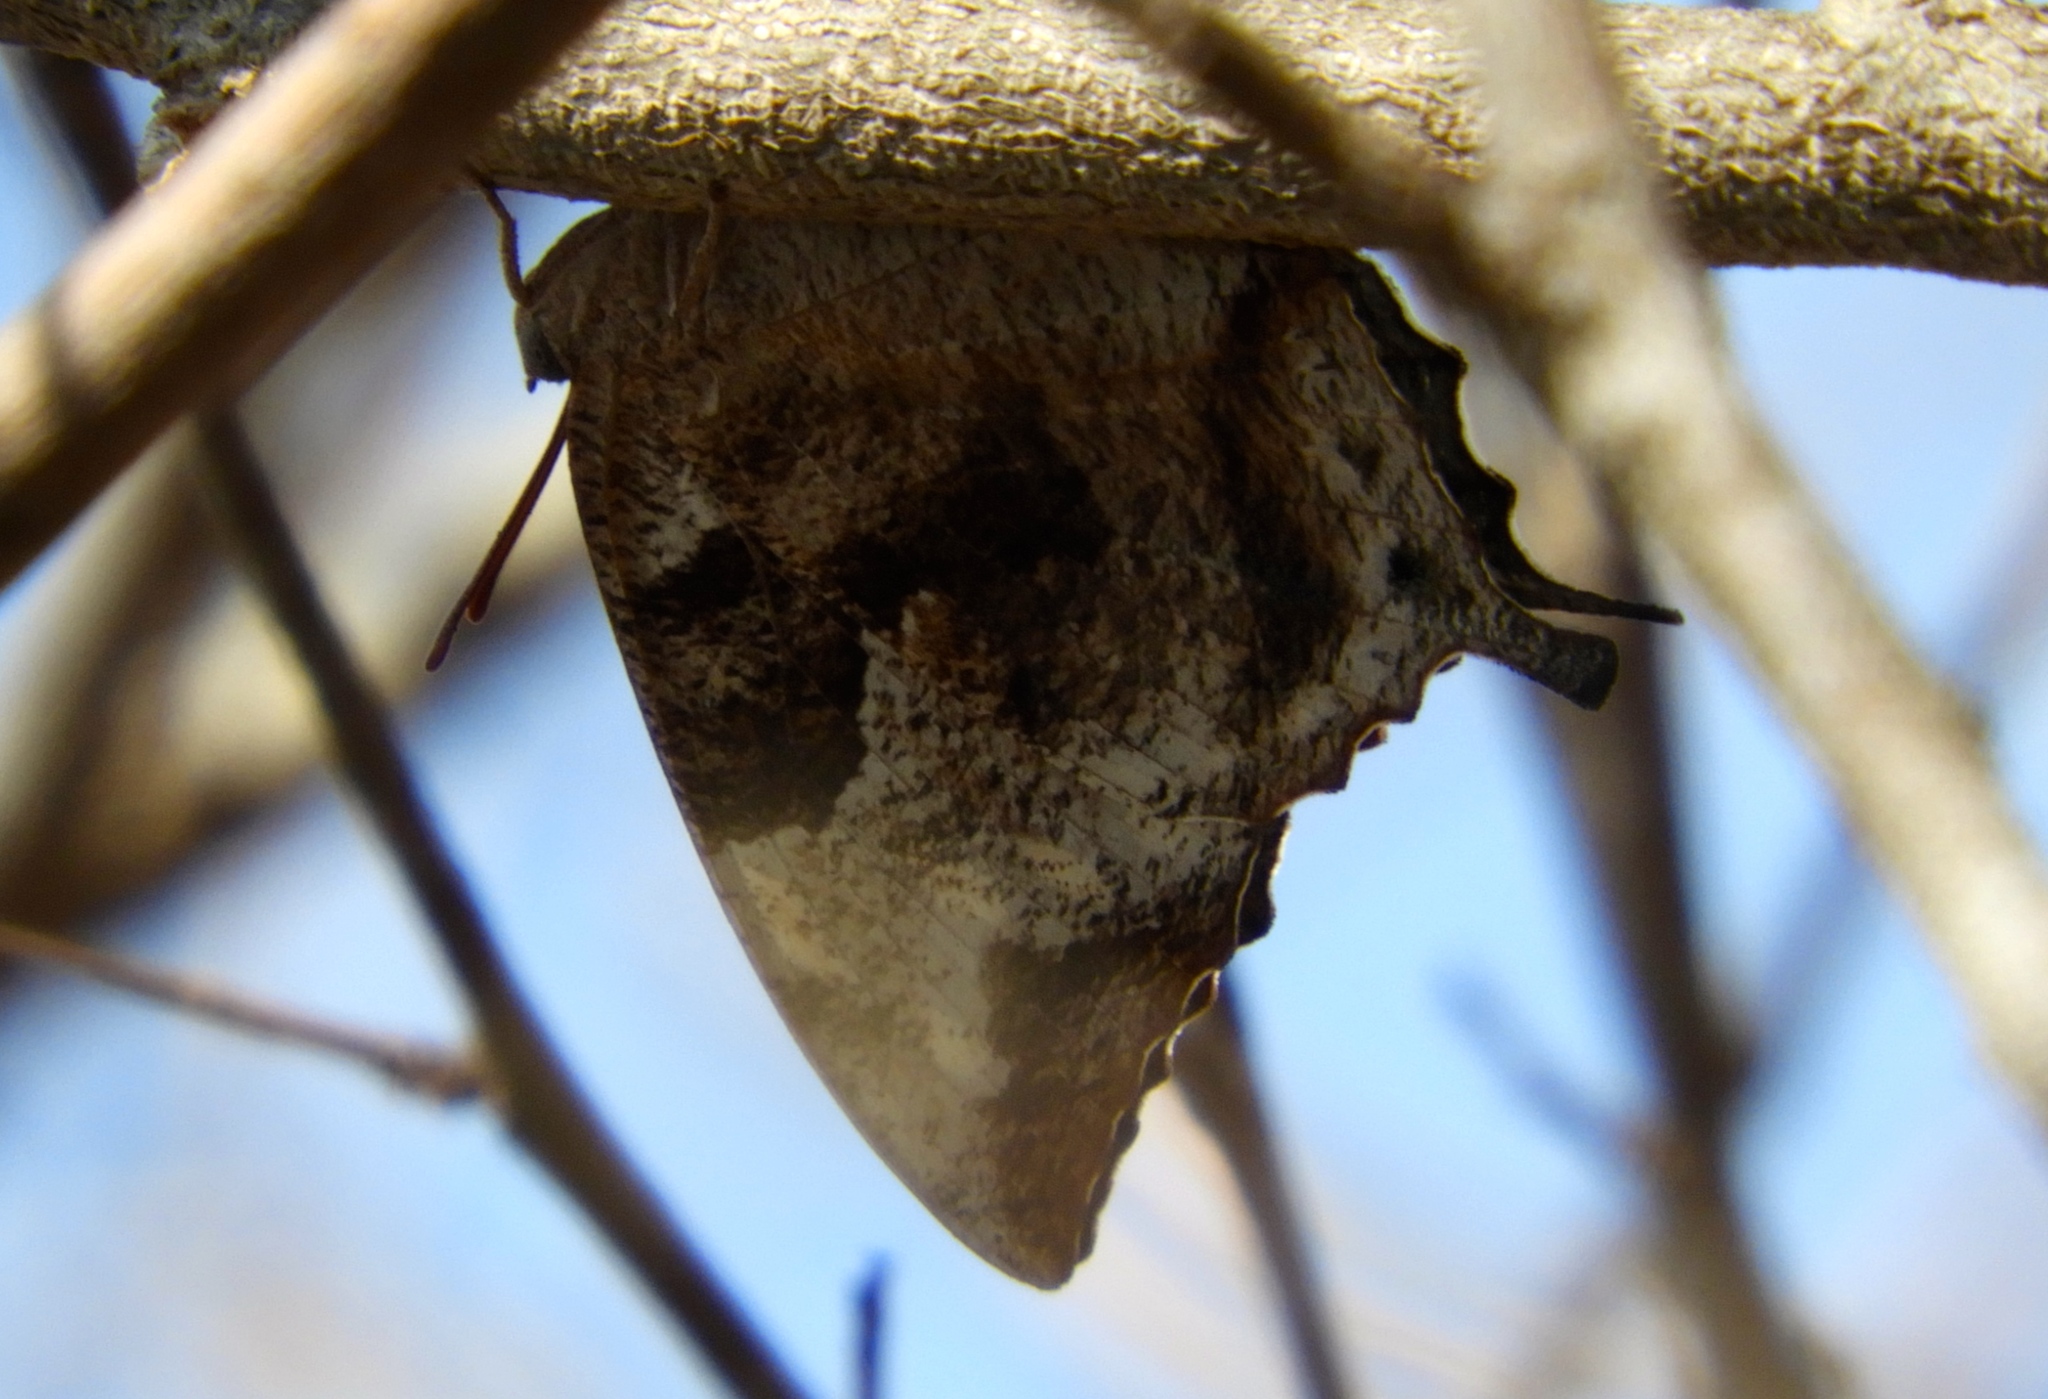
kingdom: Animalia
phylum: Arthropoda
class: Insecta
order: Lepidoptera
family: Nymphalidae
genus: Anaea
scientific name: Anaea pithyusa
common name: Pale-spotted leafwing
